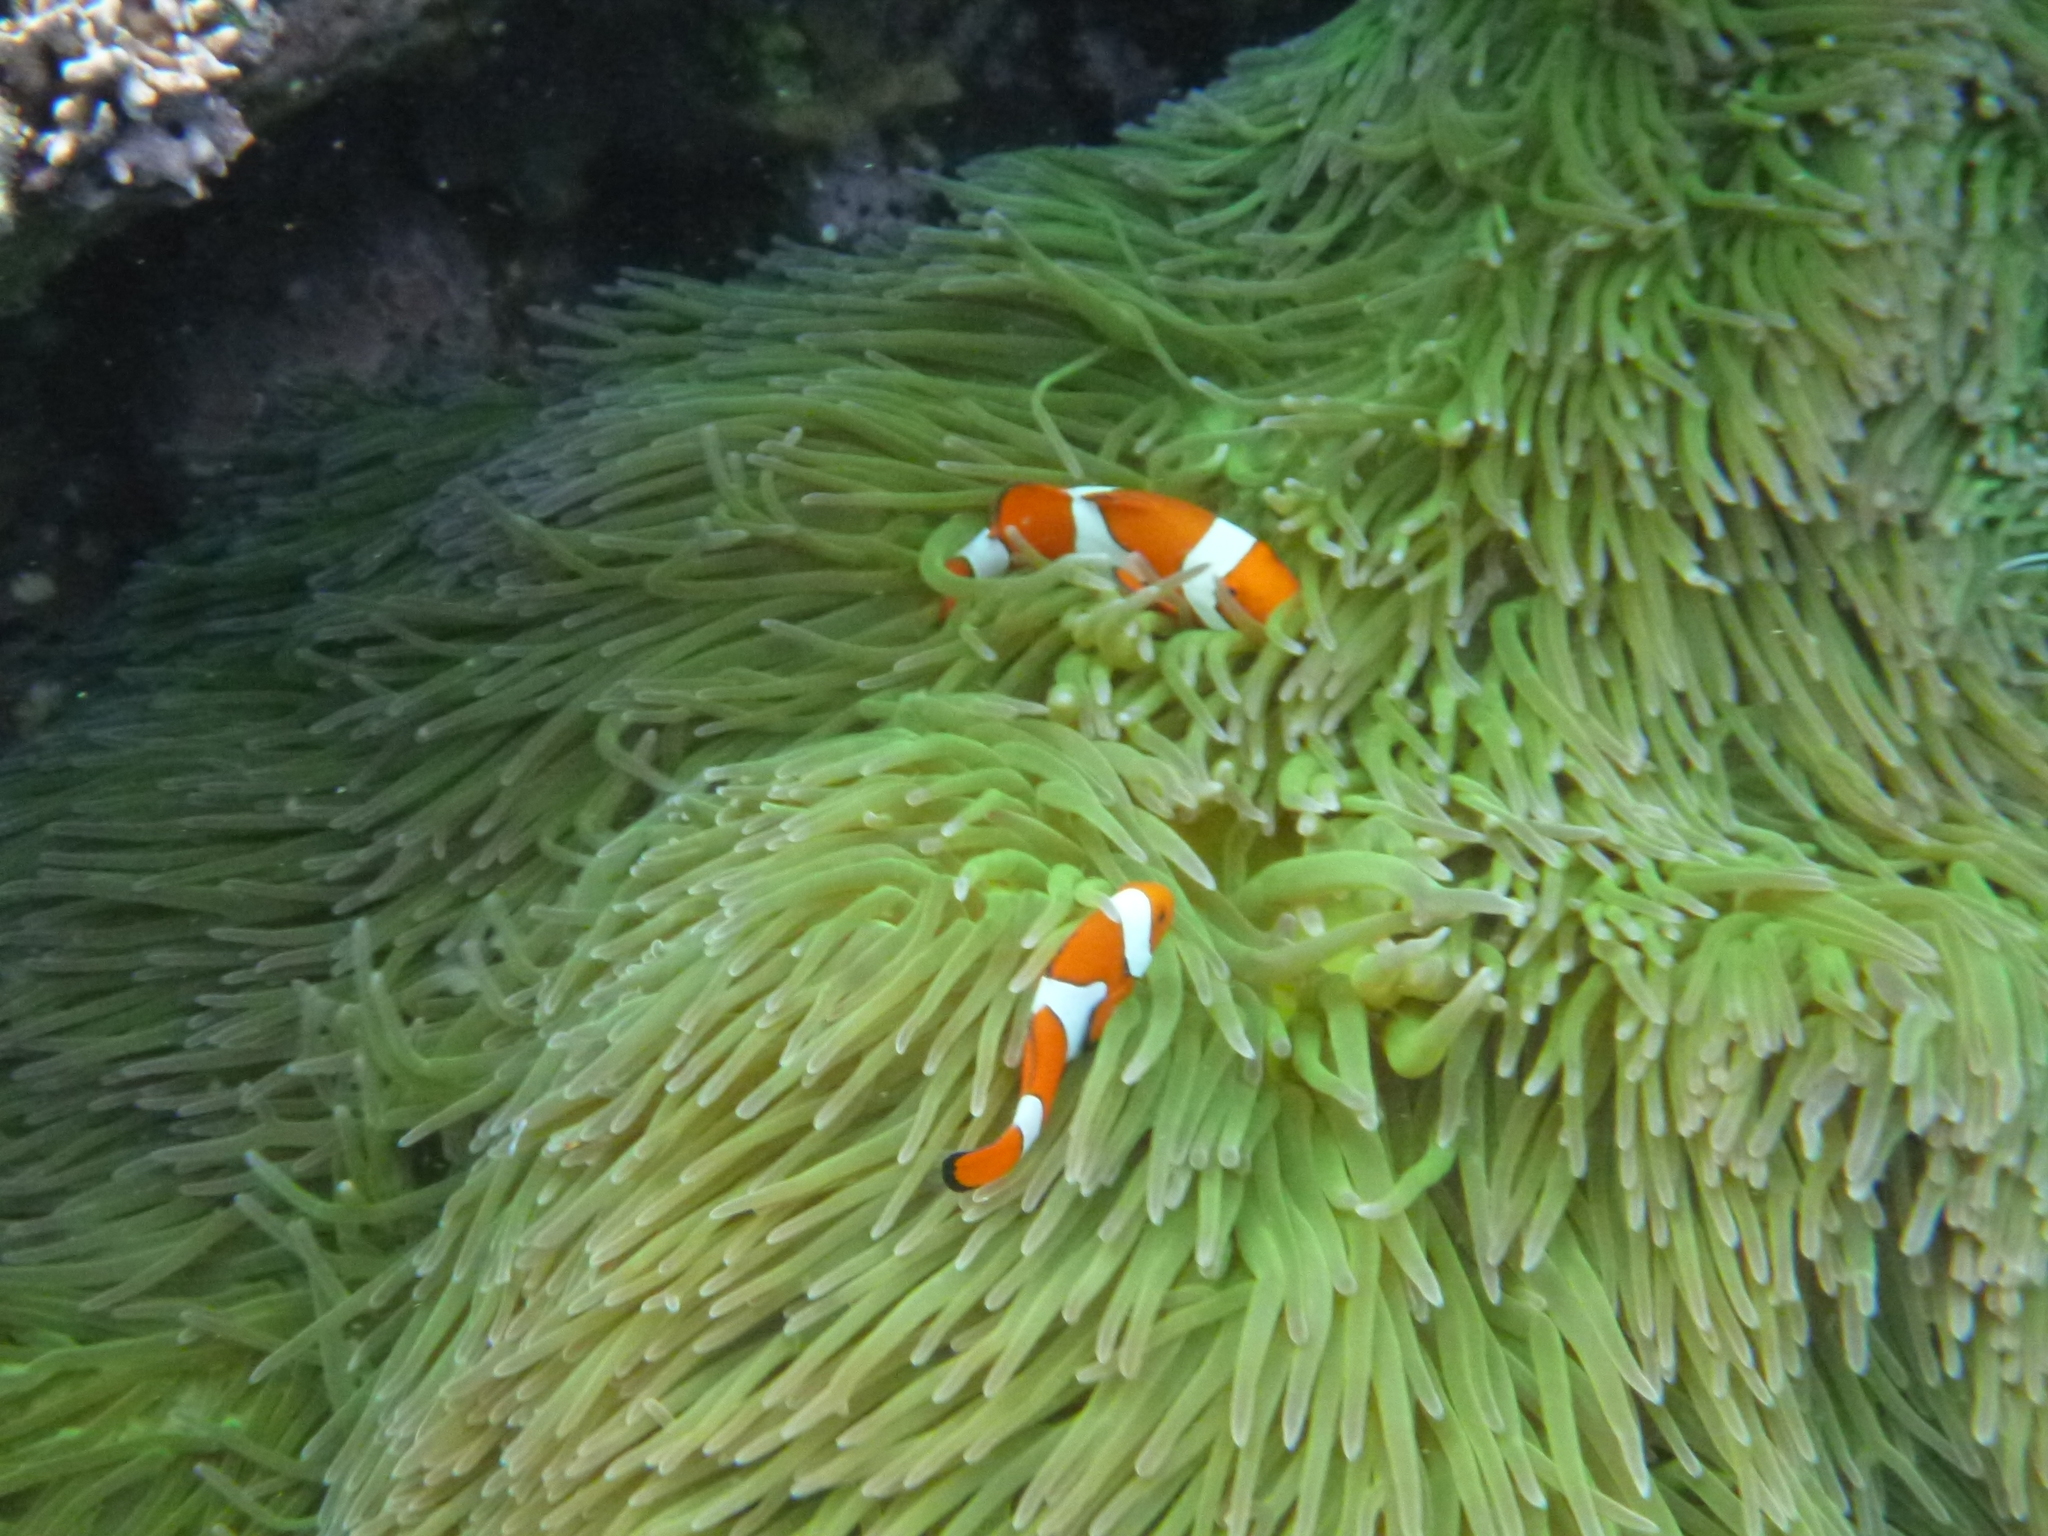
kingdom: Animalia
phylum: Chordata
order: Perciformes
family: Pomacentridae
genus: Amphiprion
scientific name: Amphiprion percula
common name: Clown anemonefish
